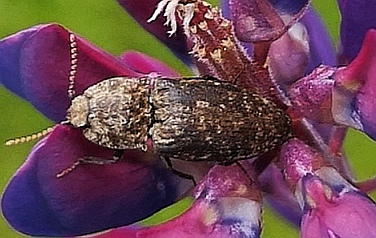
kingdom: Animalia
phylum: Arthropoda
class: Insecta
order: Coleoptera
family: Elateridae
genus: Agrypnus
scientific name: Agrypnus murinus
